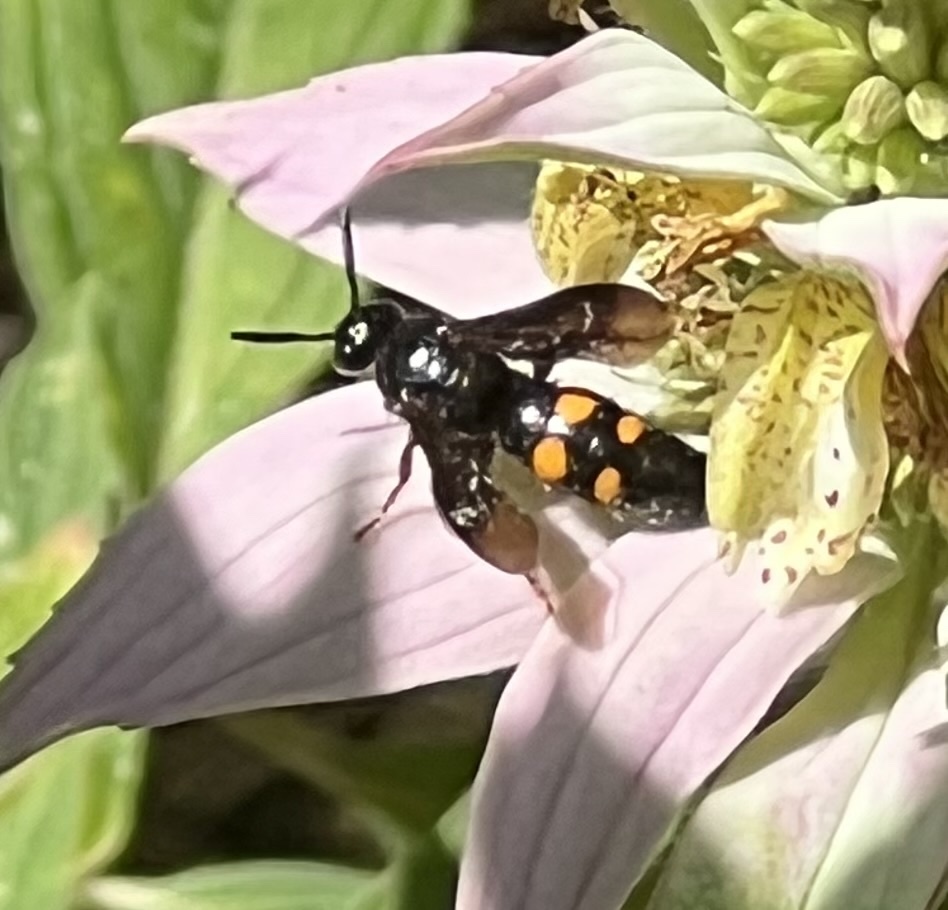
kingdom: Animalia
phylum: Arthropoda
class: Insecta
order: Hymenoptera
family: Scoliidae
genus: Pygodasis
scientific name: Pygodasis
